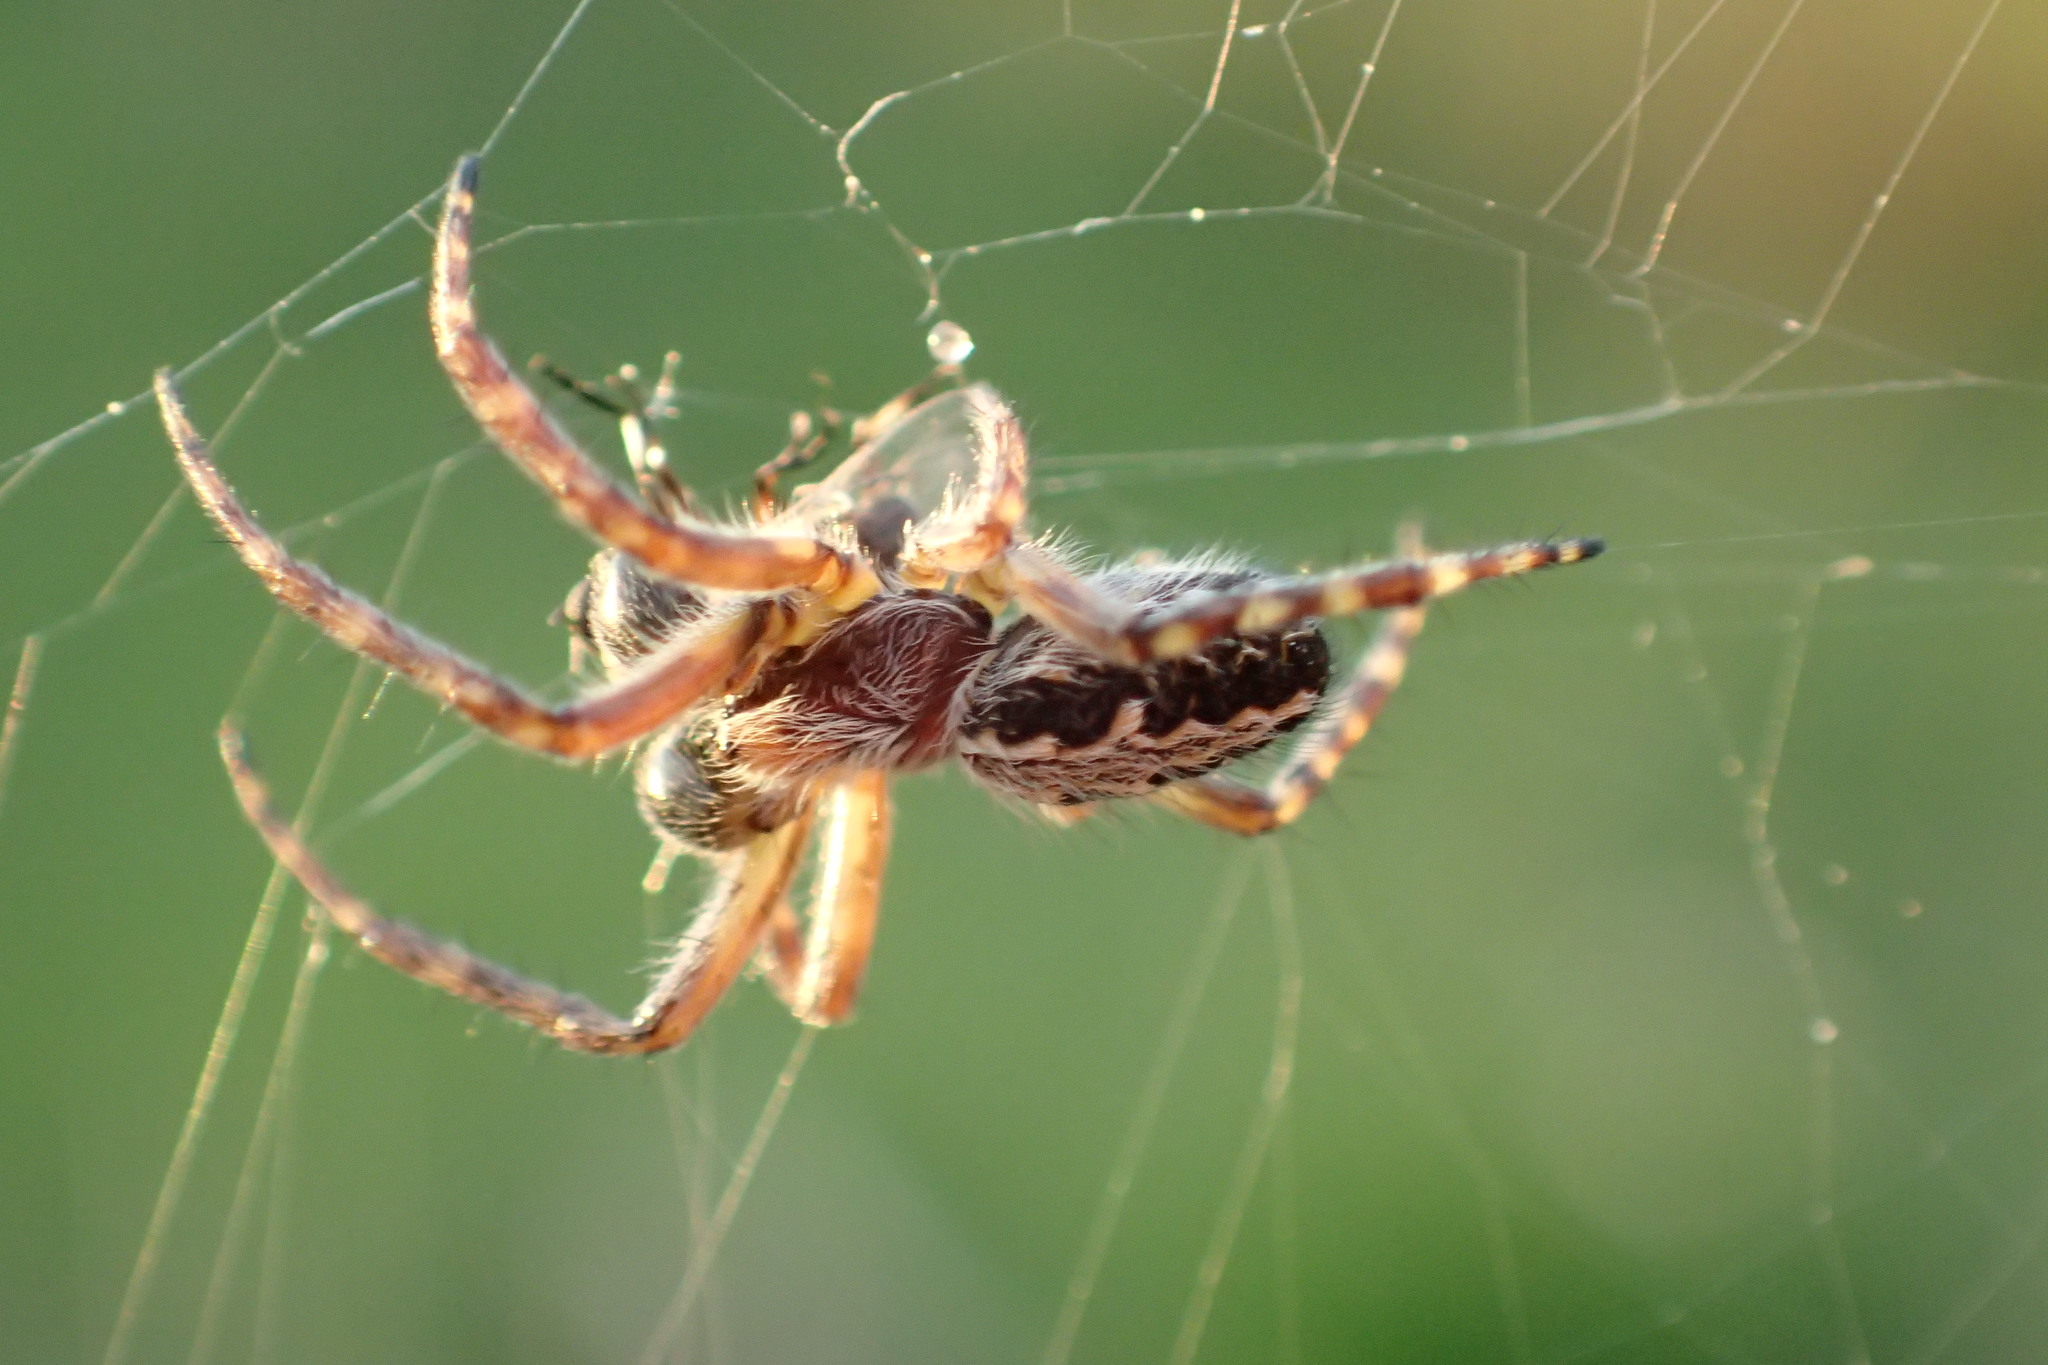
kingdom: Animalia
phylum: Arthropoda
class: Arachnida
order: Araneae
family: Araneidae
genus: Aculepeira
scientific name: Aculepeira ceropegia
